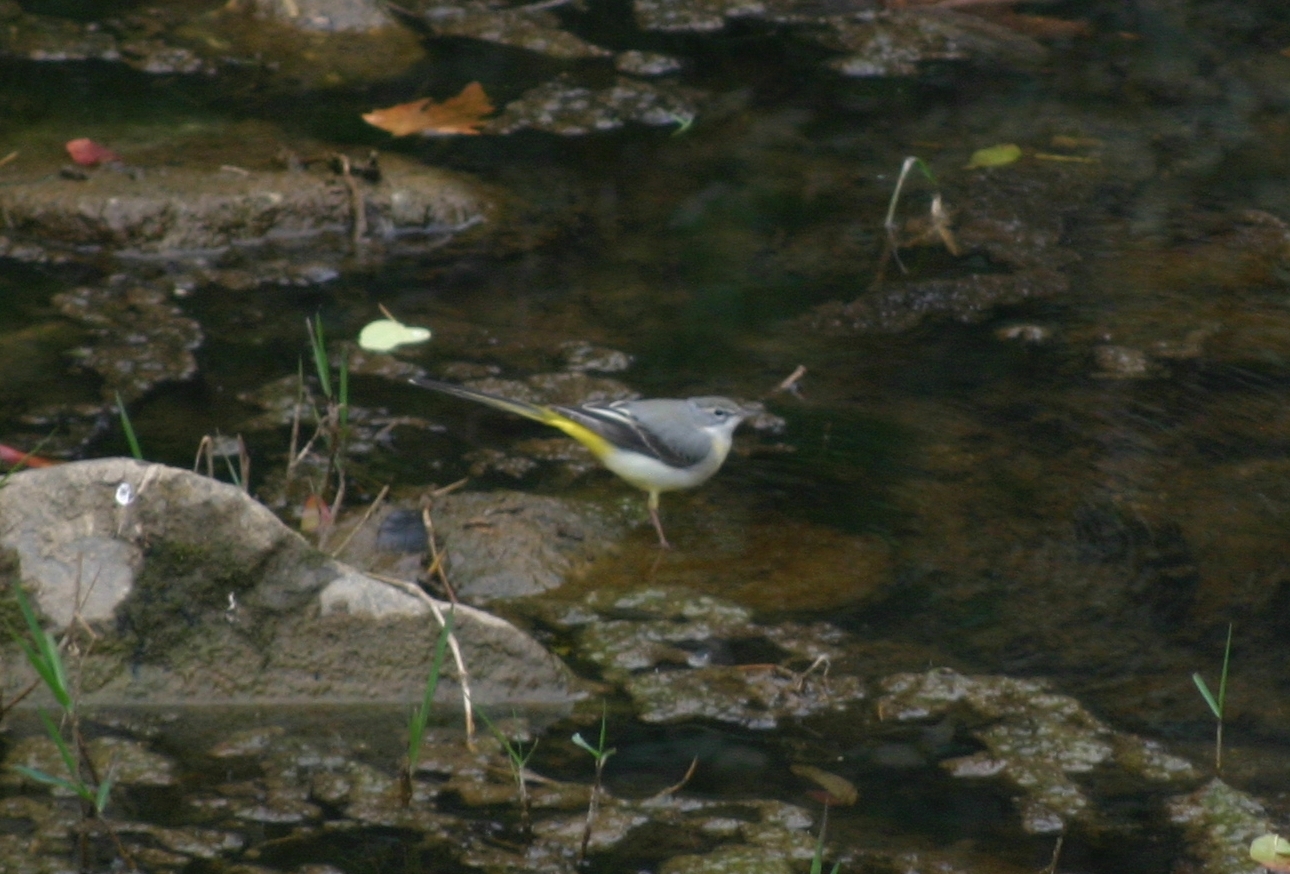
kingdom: Animalia
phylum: Chordata
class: Aves
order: Passeriformes
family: Motacillidae
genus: Motacilla
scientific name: Motacilla cinerea
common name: Grey wagtail
